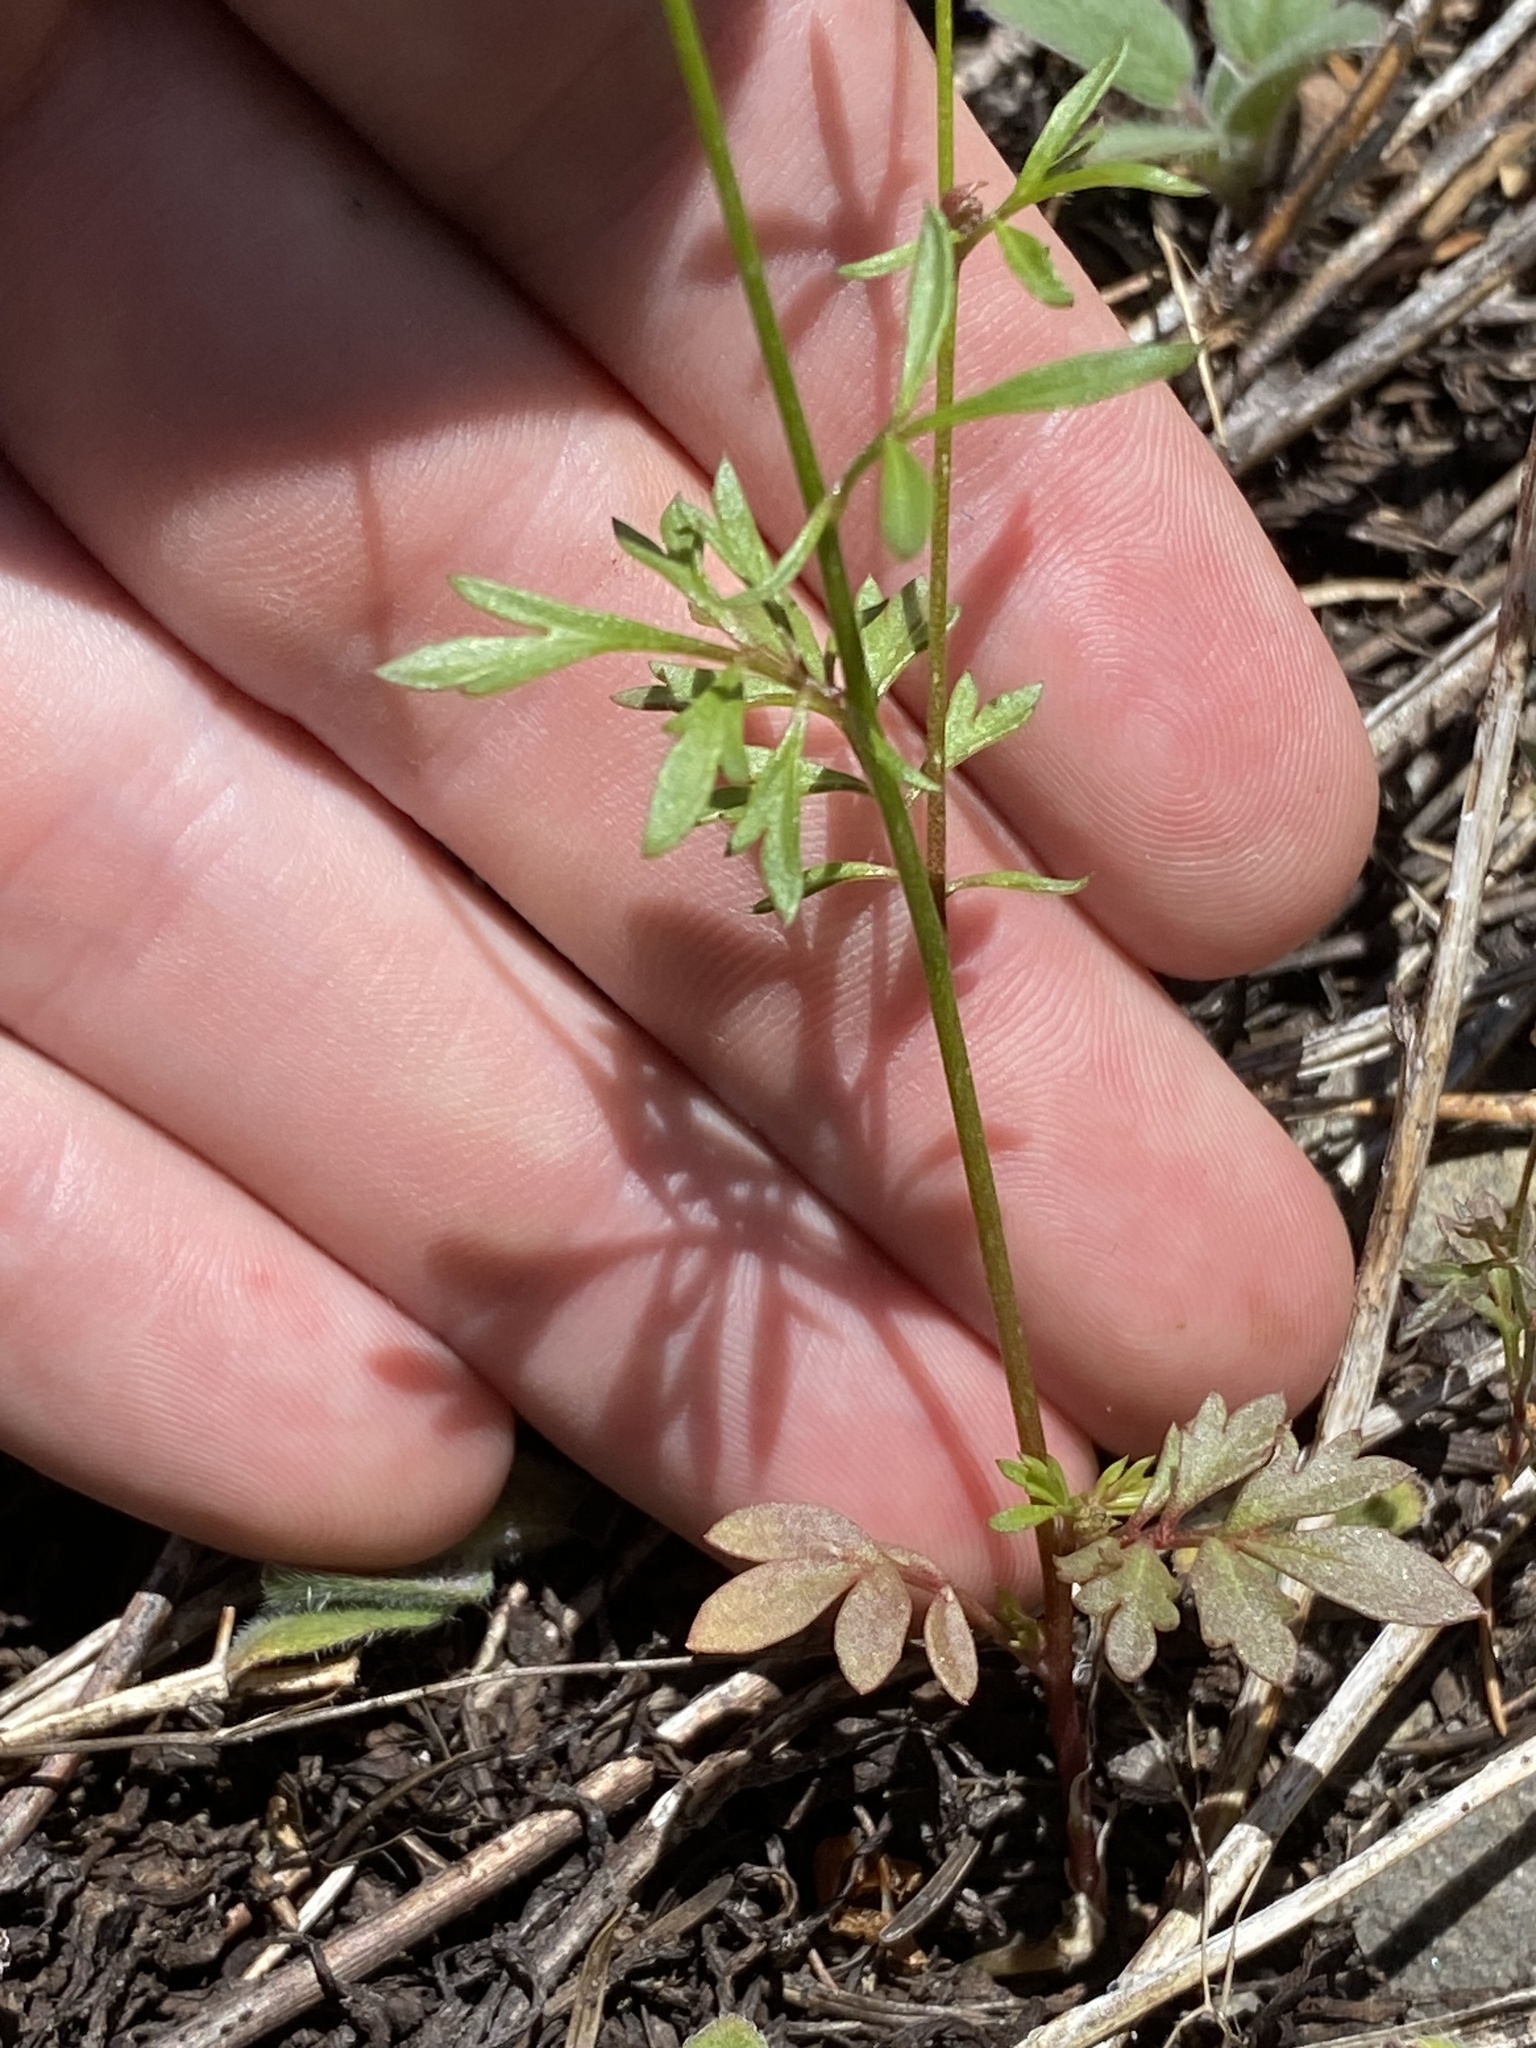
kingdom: Plantae
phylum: Tracheophyta
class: Magnoliopsida
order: Ericales
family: Polemoniaceae
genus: Gilia
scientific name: Gilia capitata
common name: Bluehead gilia
